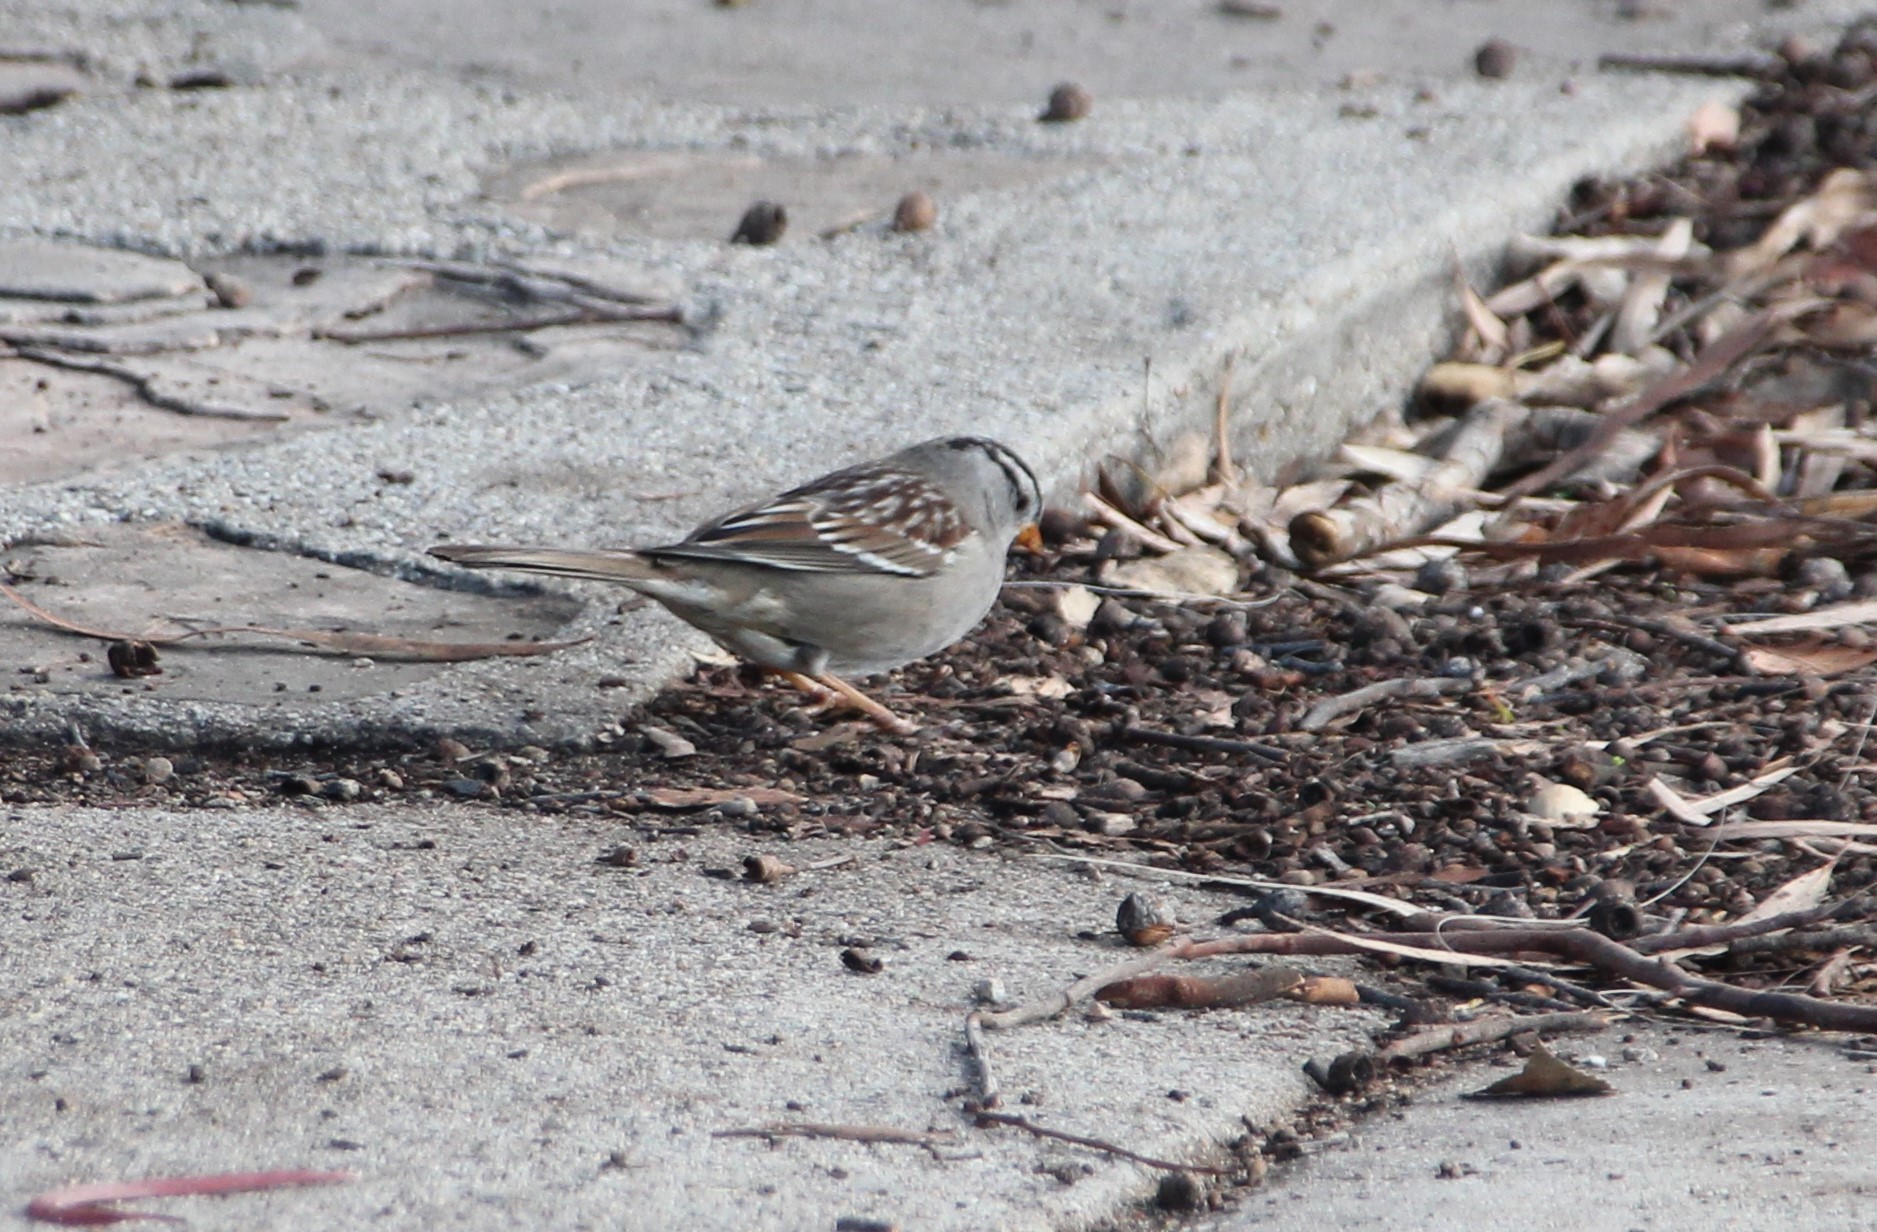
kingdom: Animalia
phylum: Chordata
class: Aves
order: Passeriformes
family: Passerellidae
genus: Zonotrichia
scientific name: Zonotrichia leucophrys
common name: White-crowned sparrow
